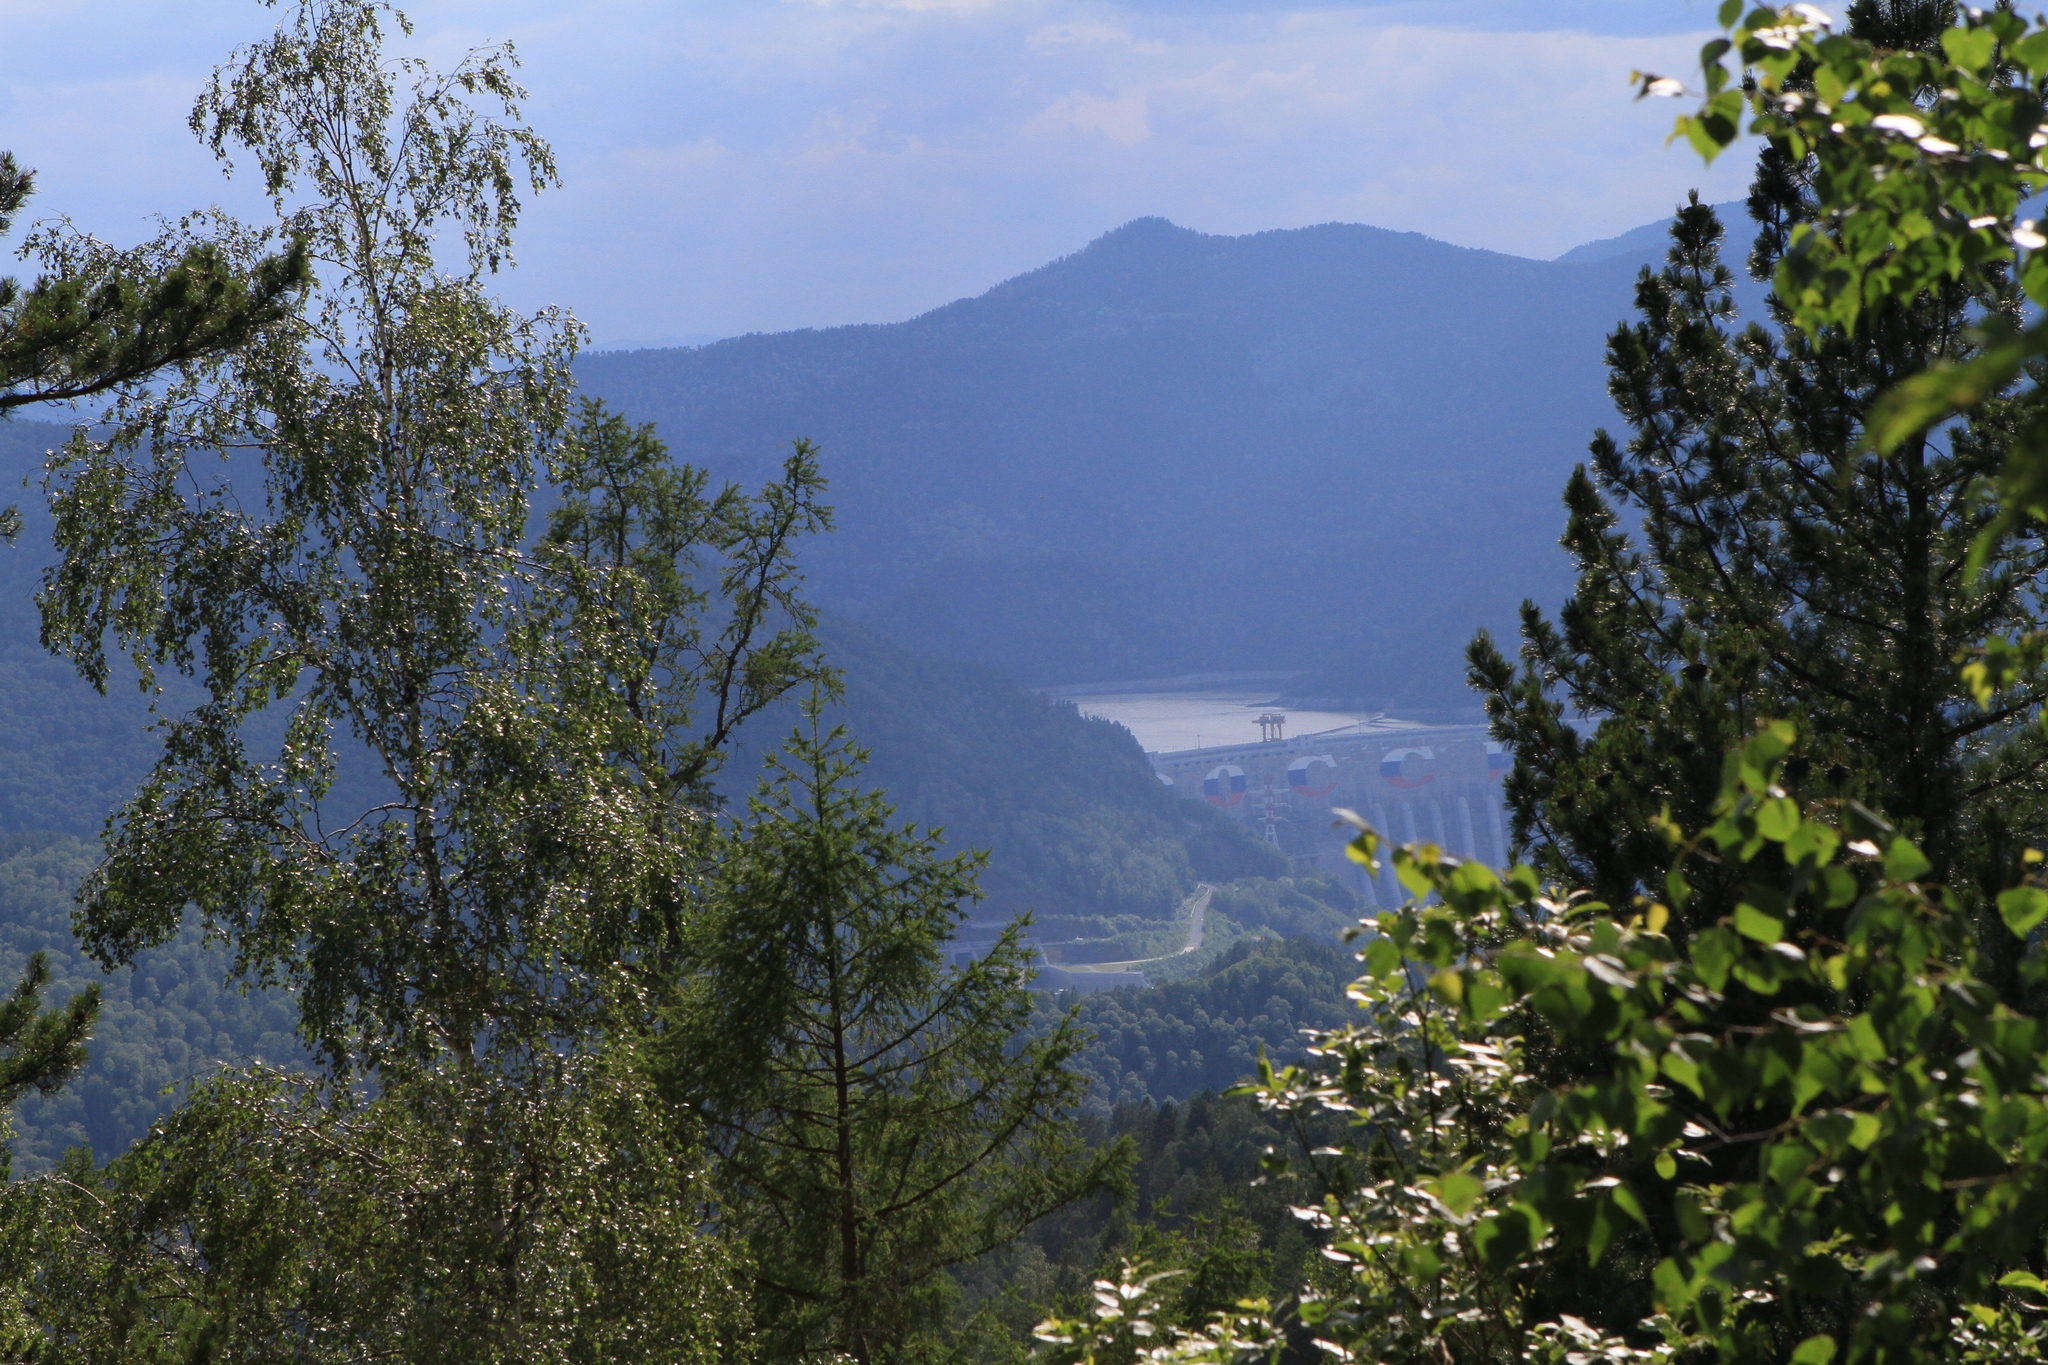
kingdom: Plantae
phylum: Tracheophyta
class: Magnoliopsida
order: Fagales
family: Betulaceae
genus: Betula
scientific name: Betula pendula
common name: Silver birch
